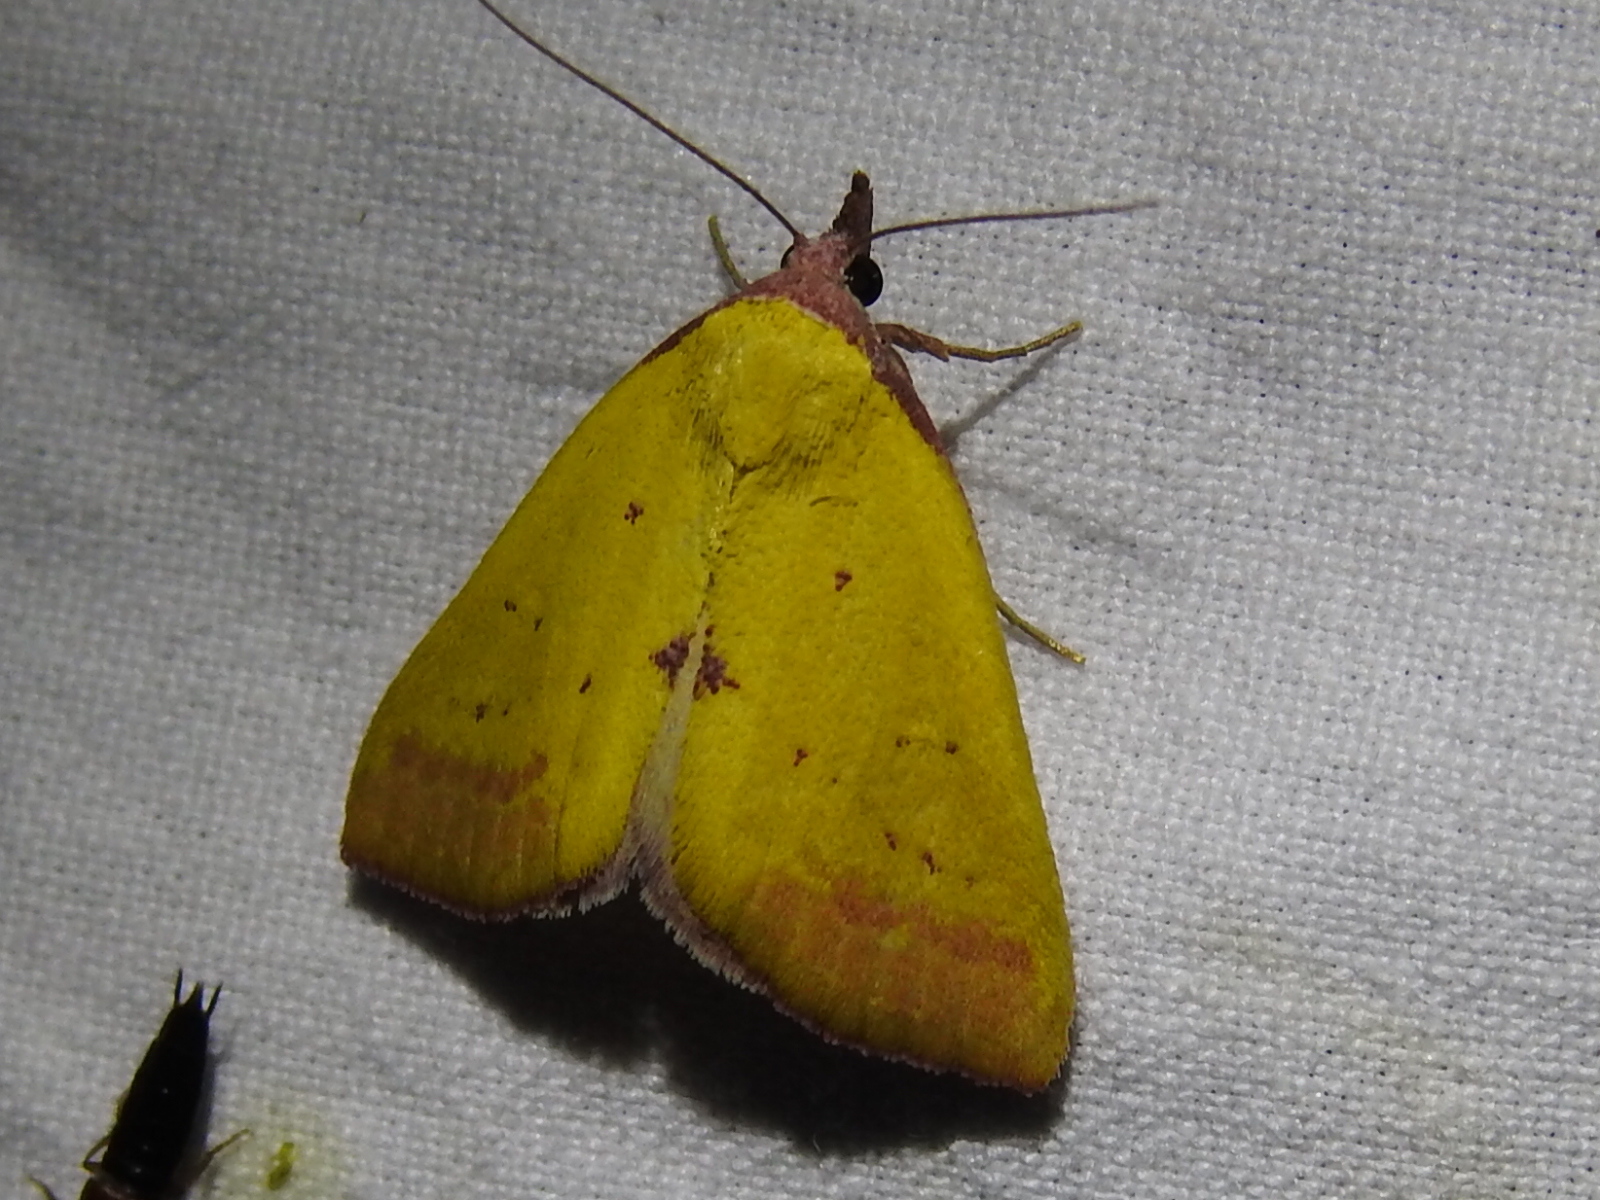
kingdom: Animalia
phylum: Arthropoda
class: Insecta
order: Lepidoptera
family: Erebidae
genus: Phytometra
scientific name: Phytometra orgiae
